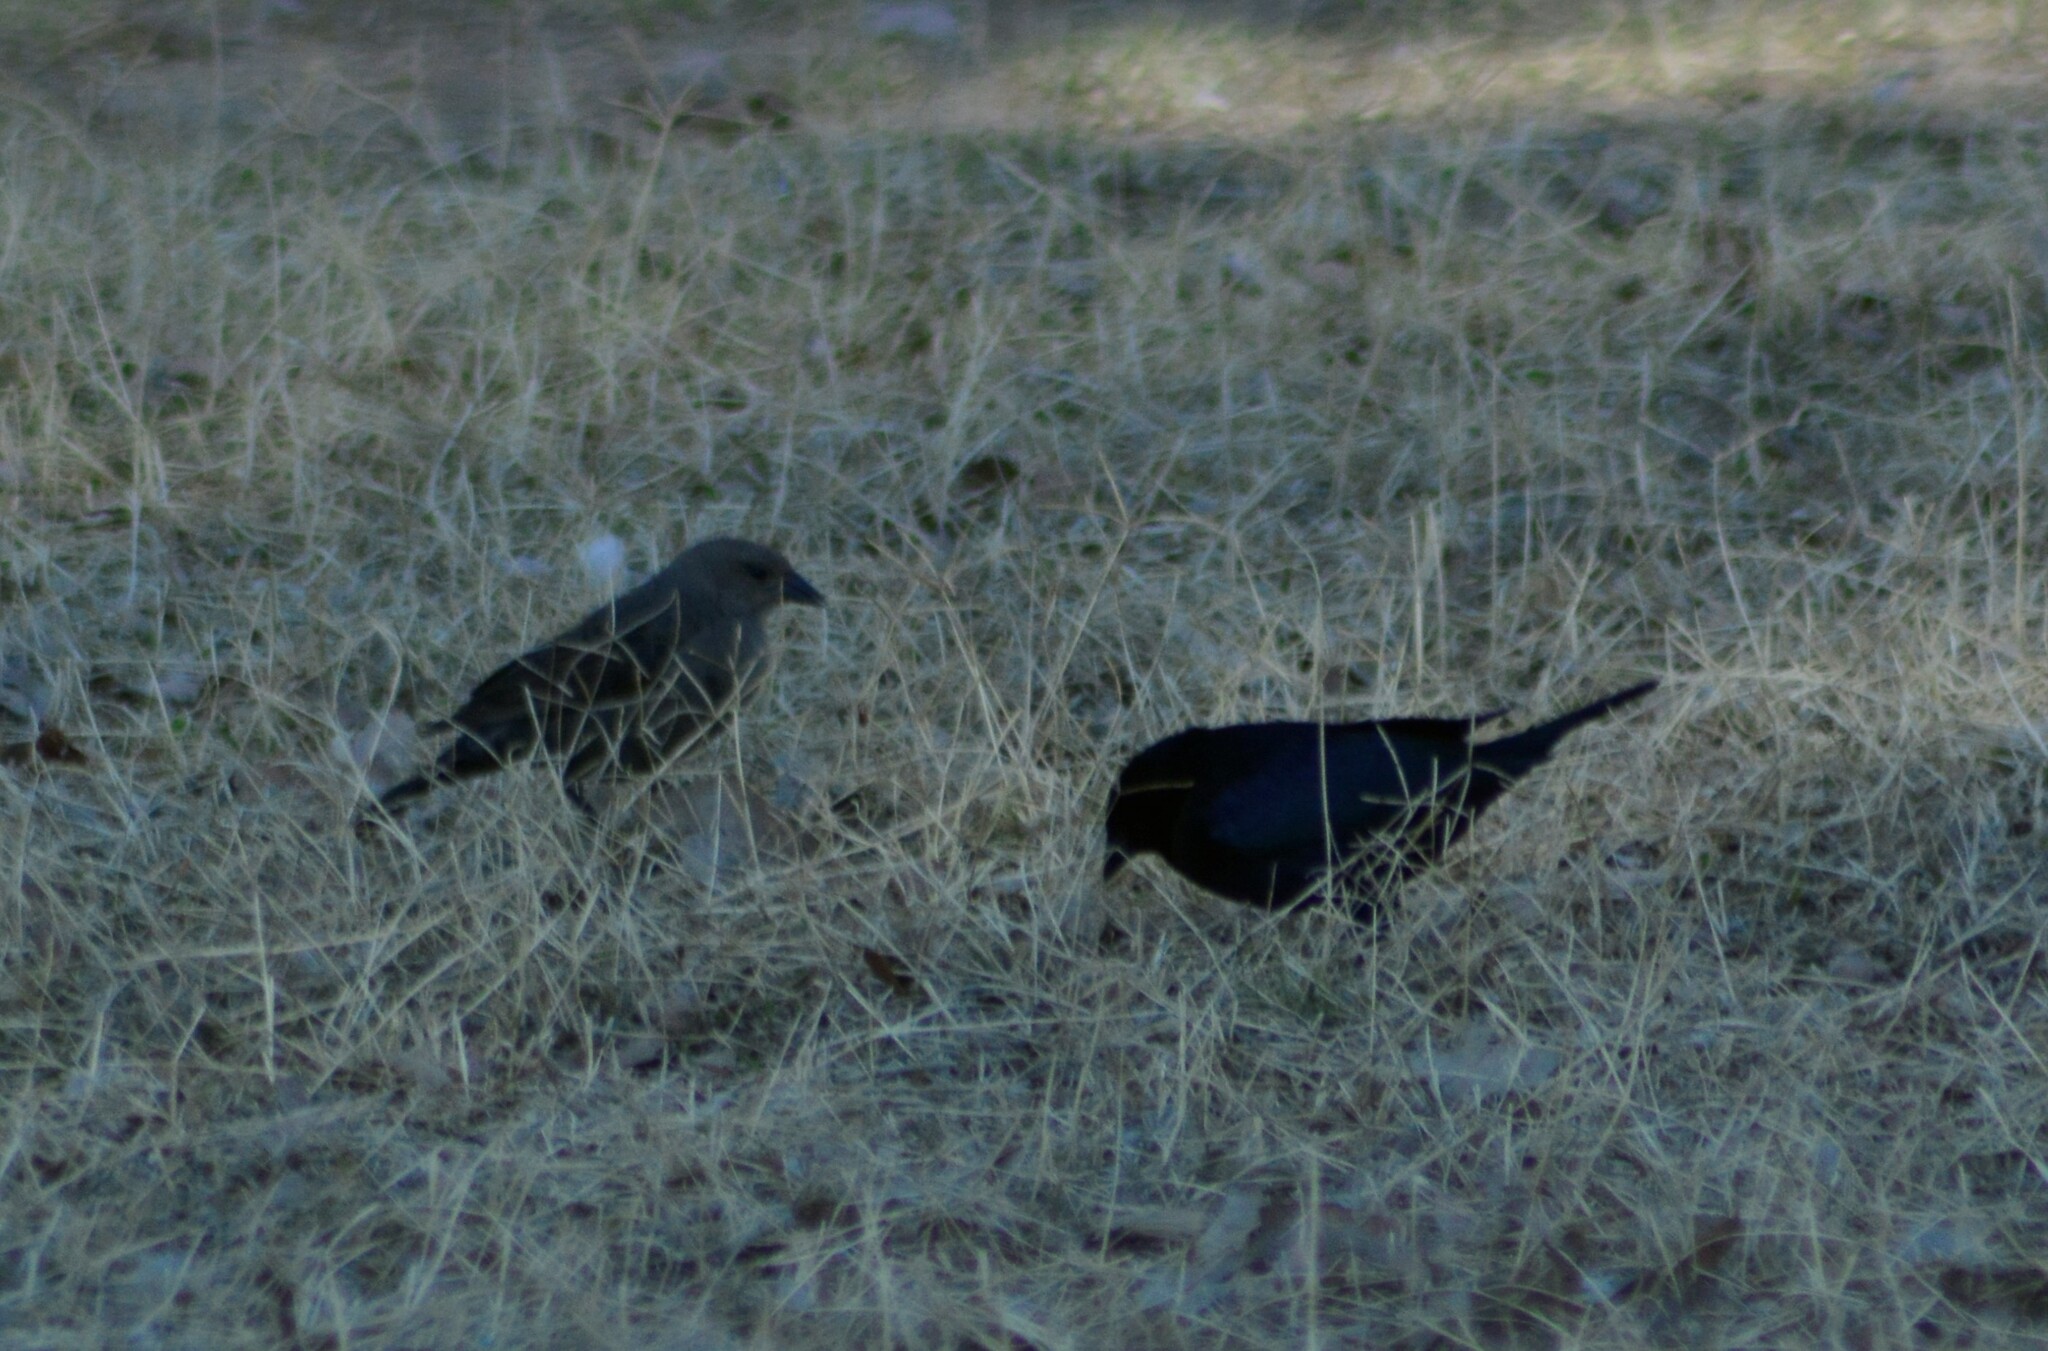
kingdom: Animalia
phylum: Chordata
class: Aves
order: Passeriformes
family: Icteridae
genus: Molothrus
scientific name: Molothrus bonariensis
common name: Shiny cowbird
